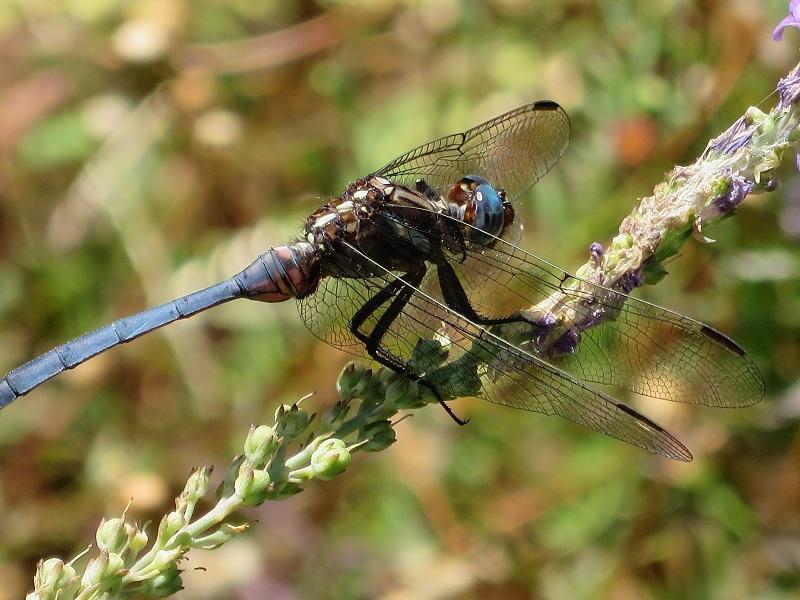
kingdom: Animalia
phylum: Arthropoda
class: Insecta
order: Odonata
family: Libellulidae
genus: Orthetrum
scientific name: Orthetrum caffrum
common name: Two-striped skimmer
